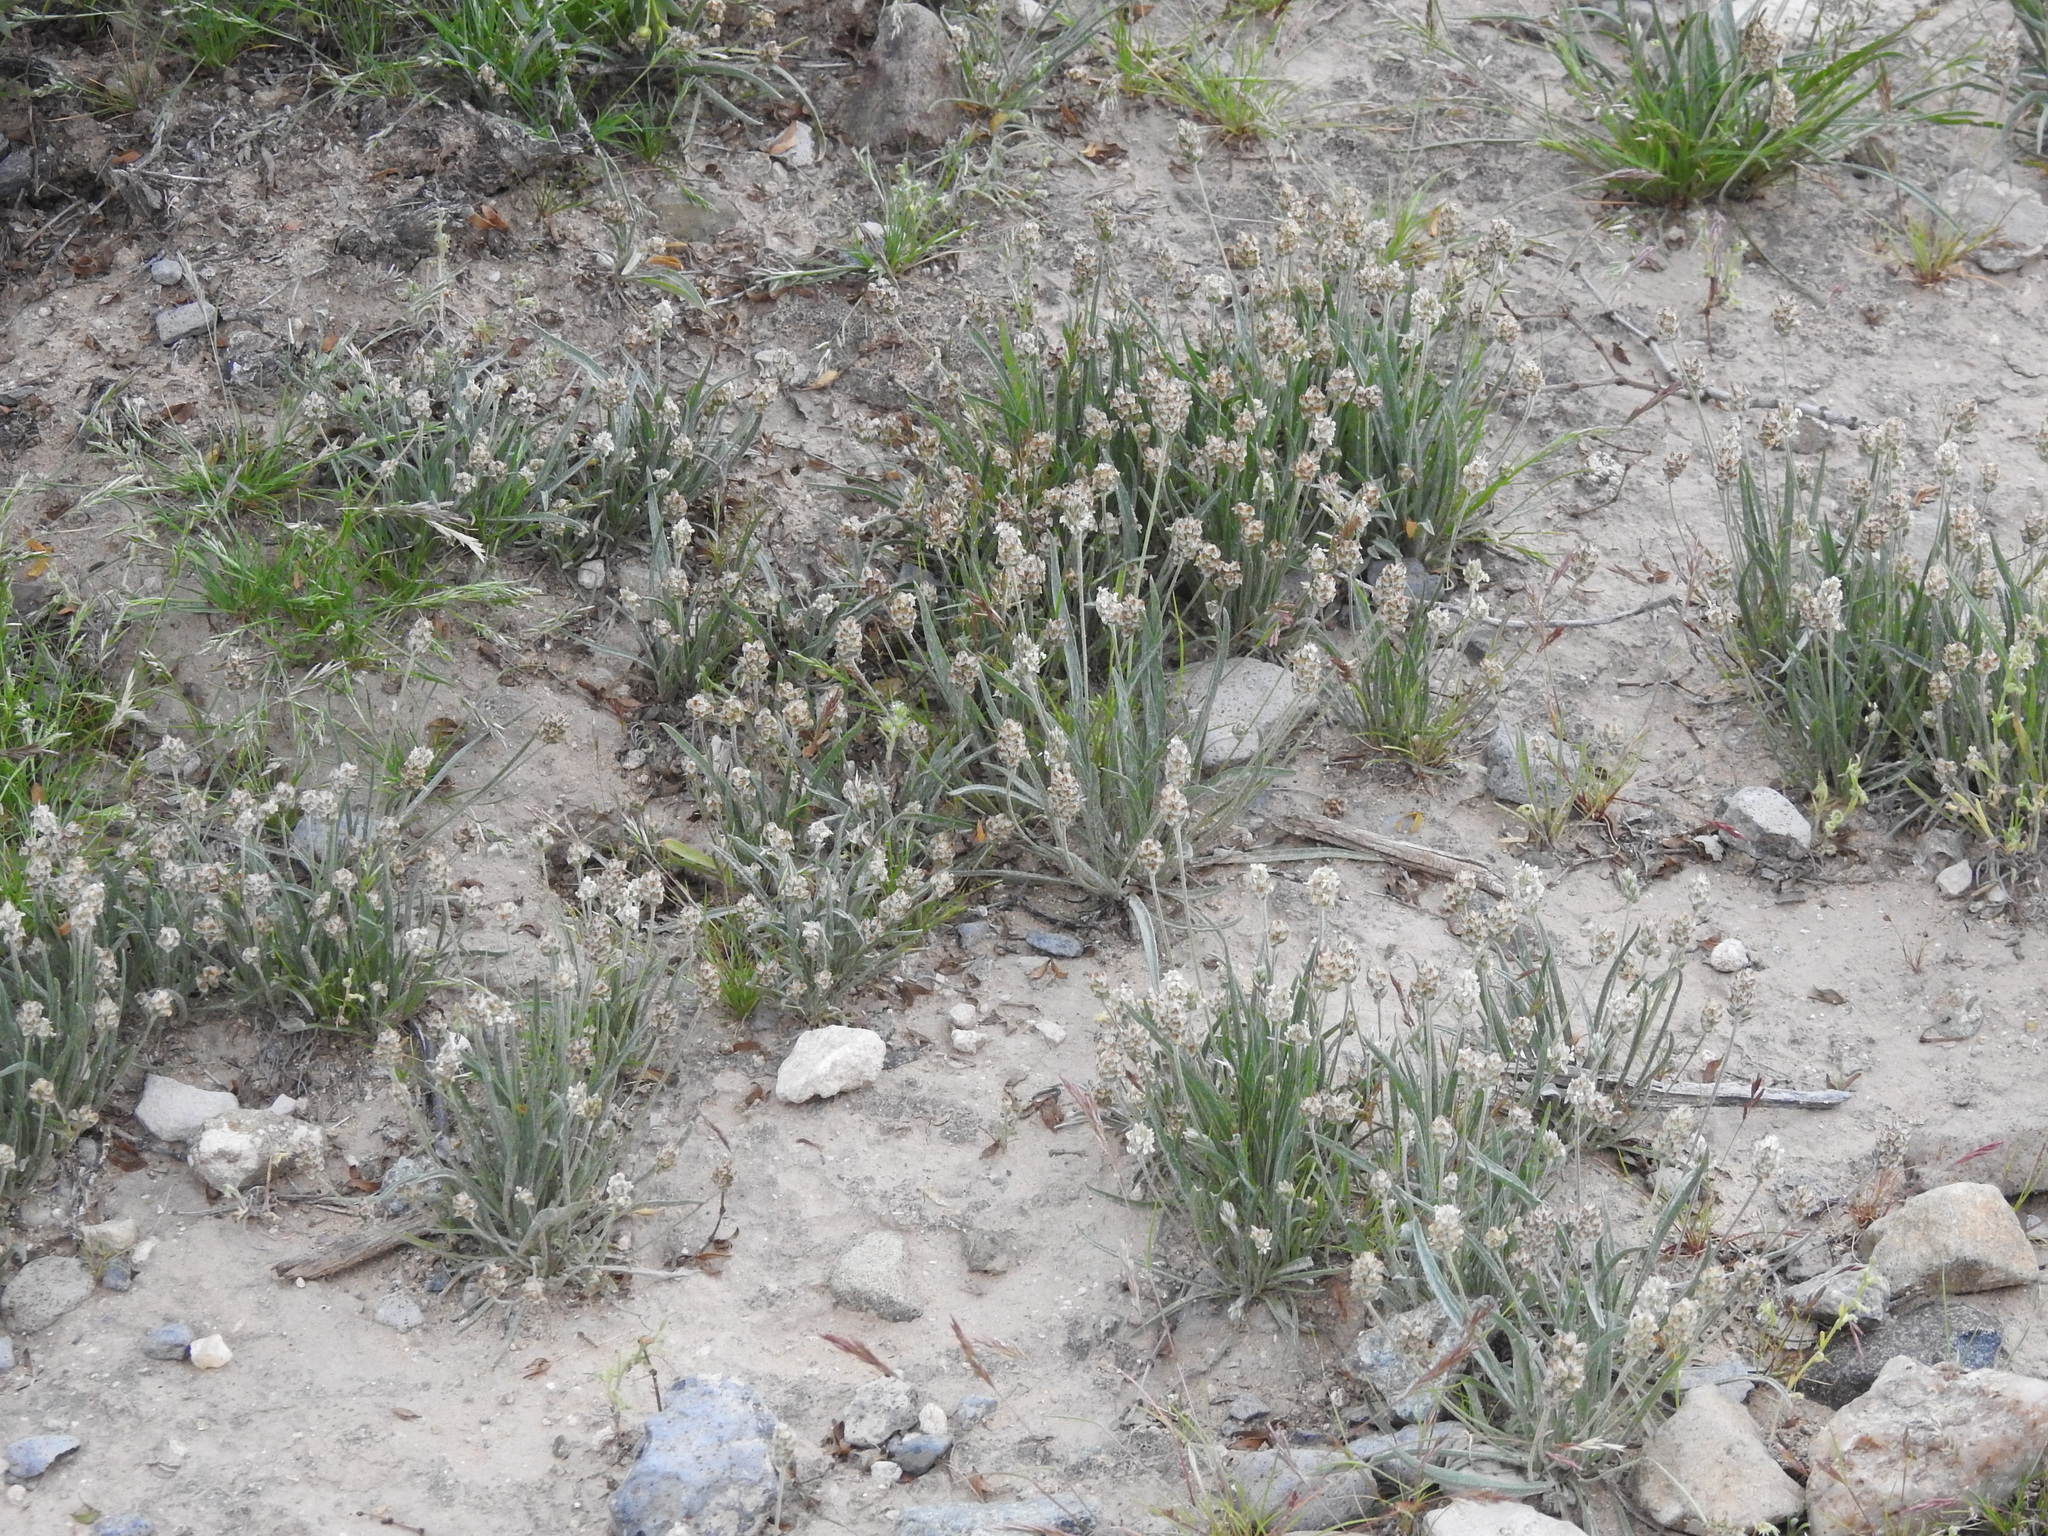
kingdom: Plantae
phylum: Tracheophyta
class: Magnoliopsida
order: Lamiales
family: Plantaginaceae
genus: Plantago
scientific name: Plantago ovata
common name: Blond plantain
